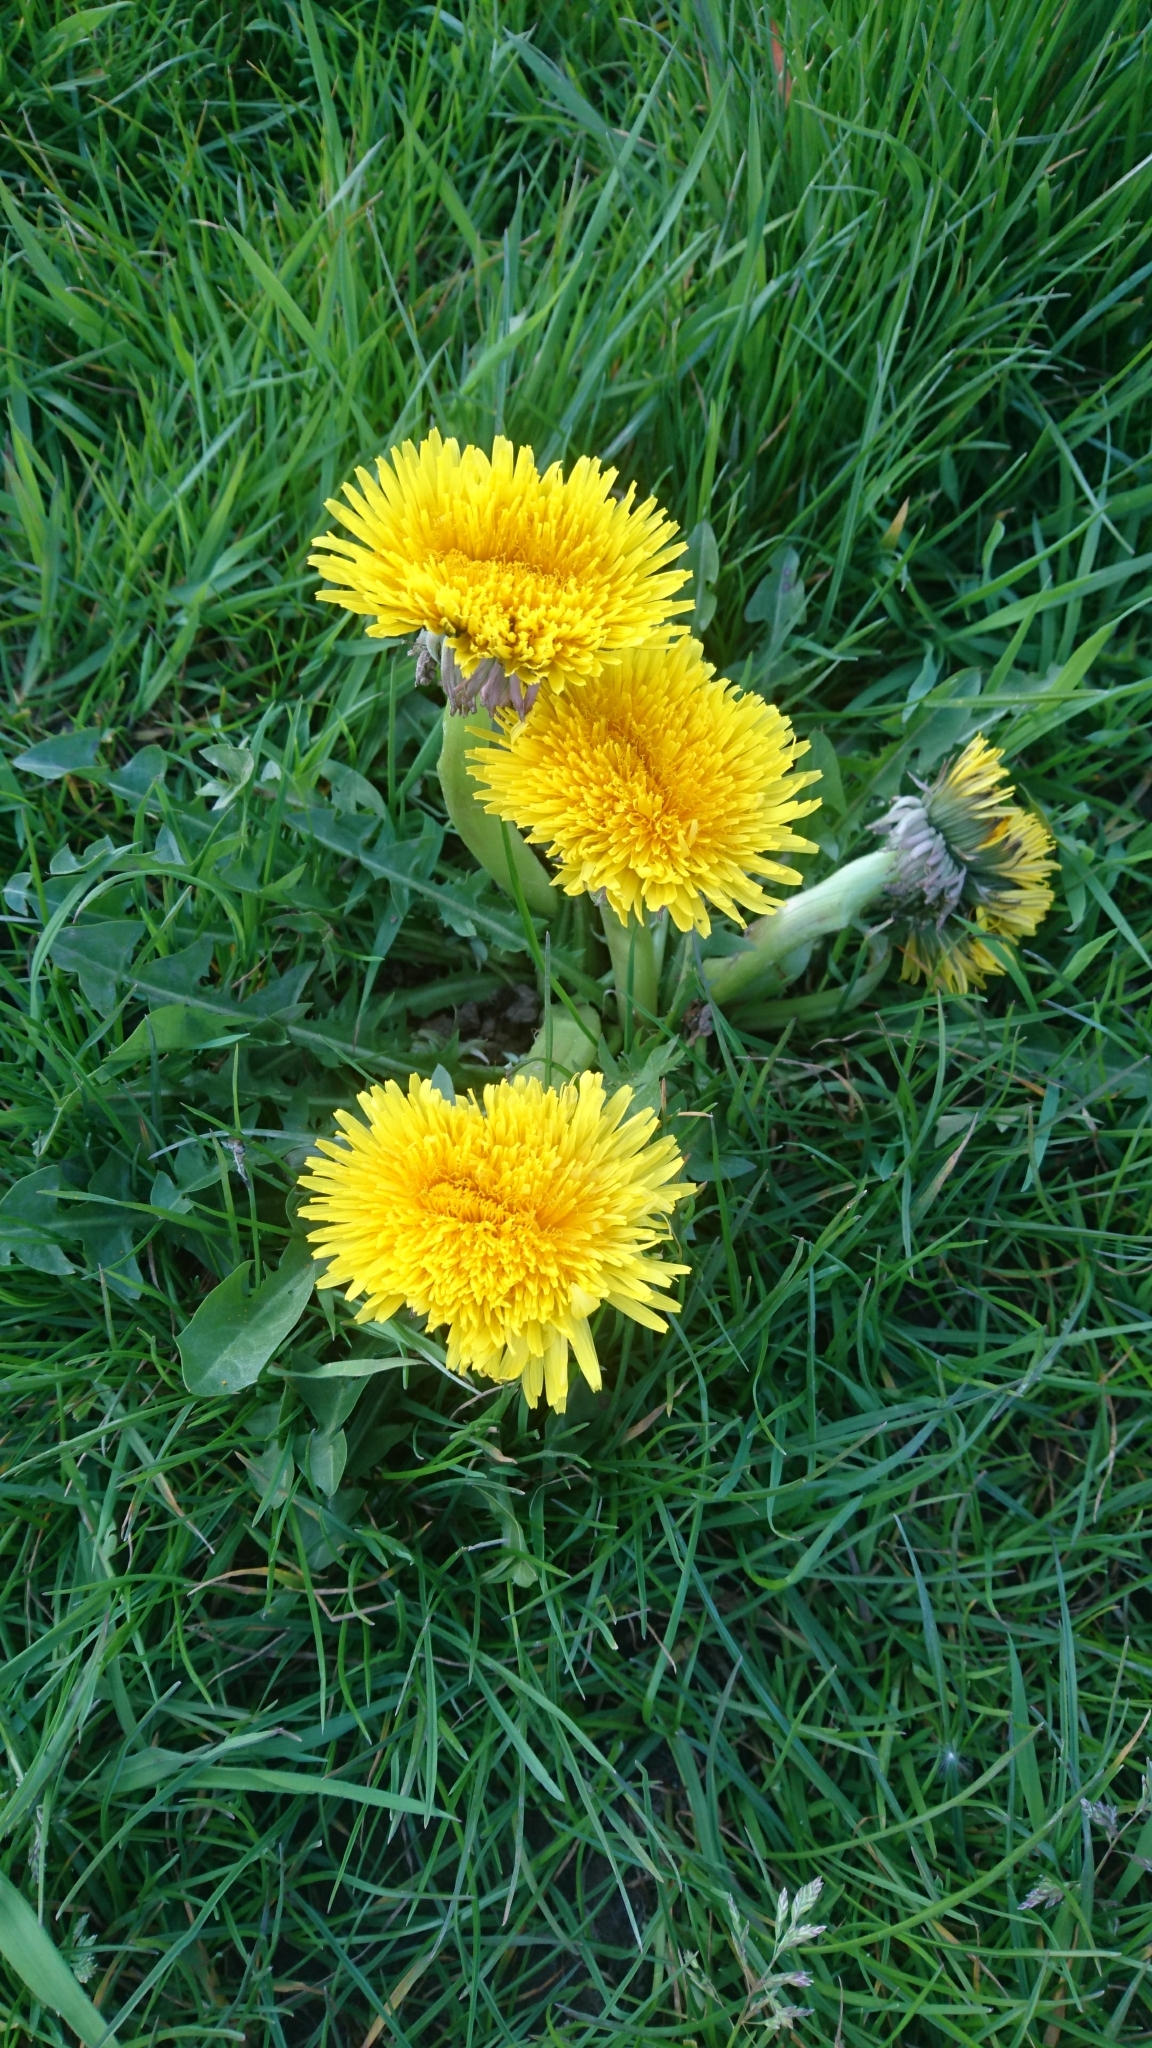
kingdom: Plantae
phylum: Tracheophyta
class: Magnoliopsida
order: Asterales
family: Asteraceae
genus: Taraxacum
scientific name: Taraxacum officinale
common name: Common dandelion
